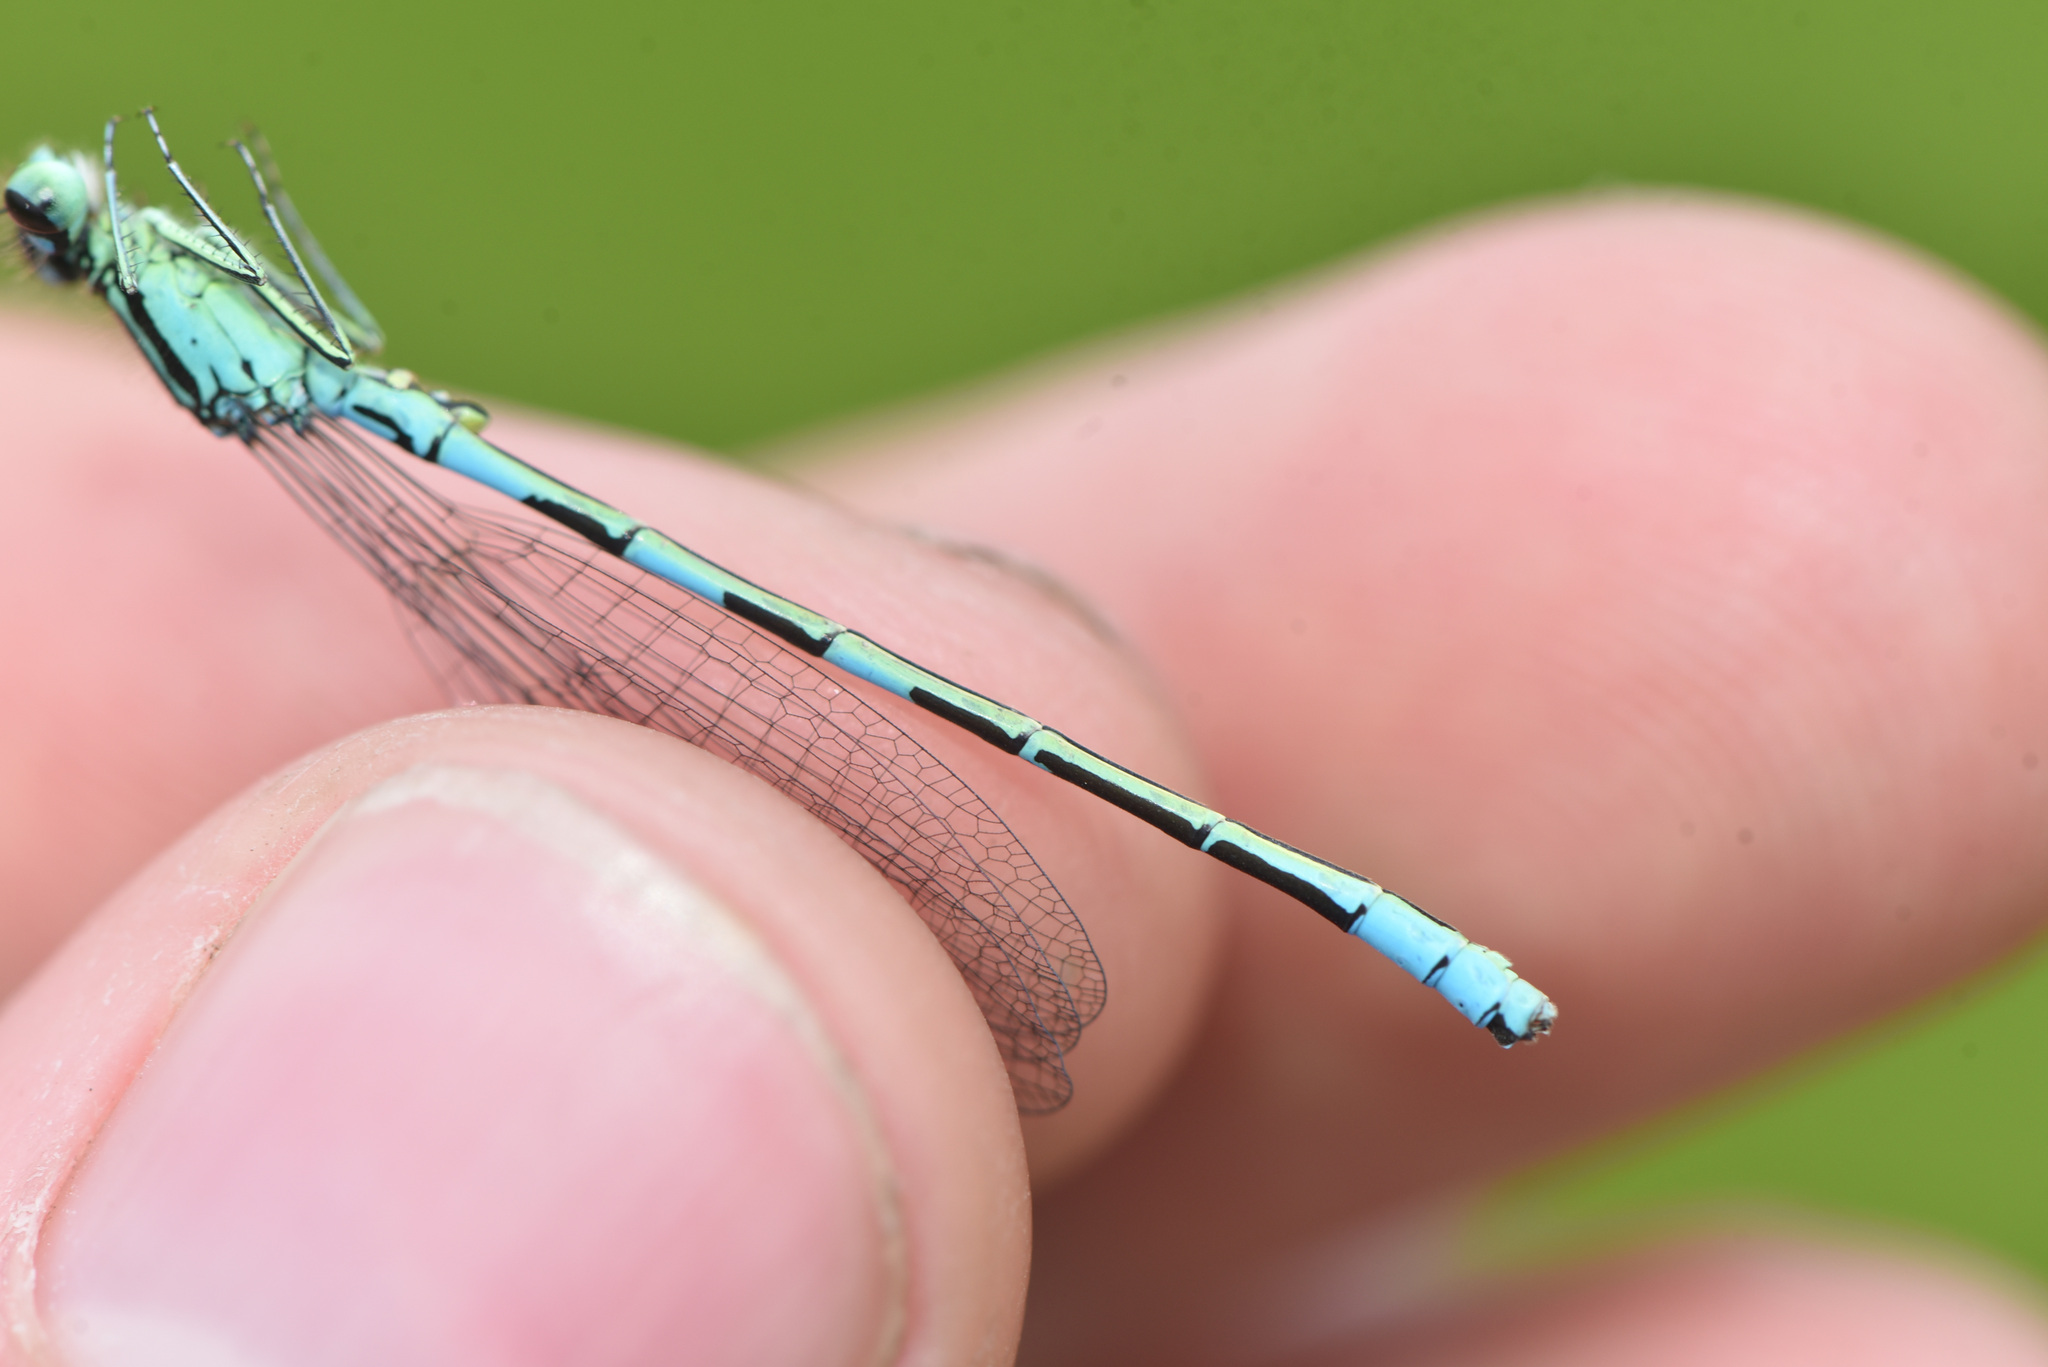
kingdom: Animalia
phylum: Arthropoda
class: Insecta
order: Odonata
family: Coenagrionidae
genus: Coenagrion
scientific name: Coenagrion resolutum
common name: Taiga bluet
